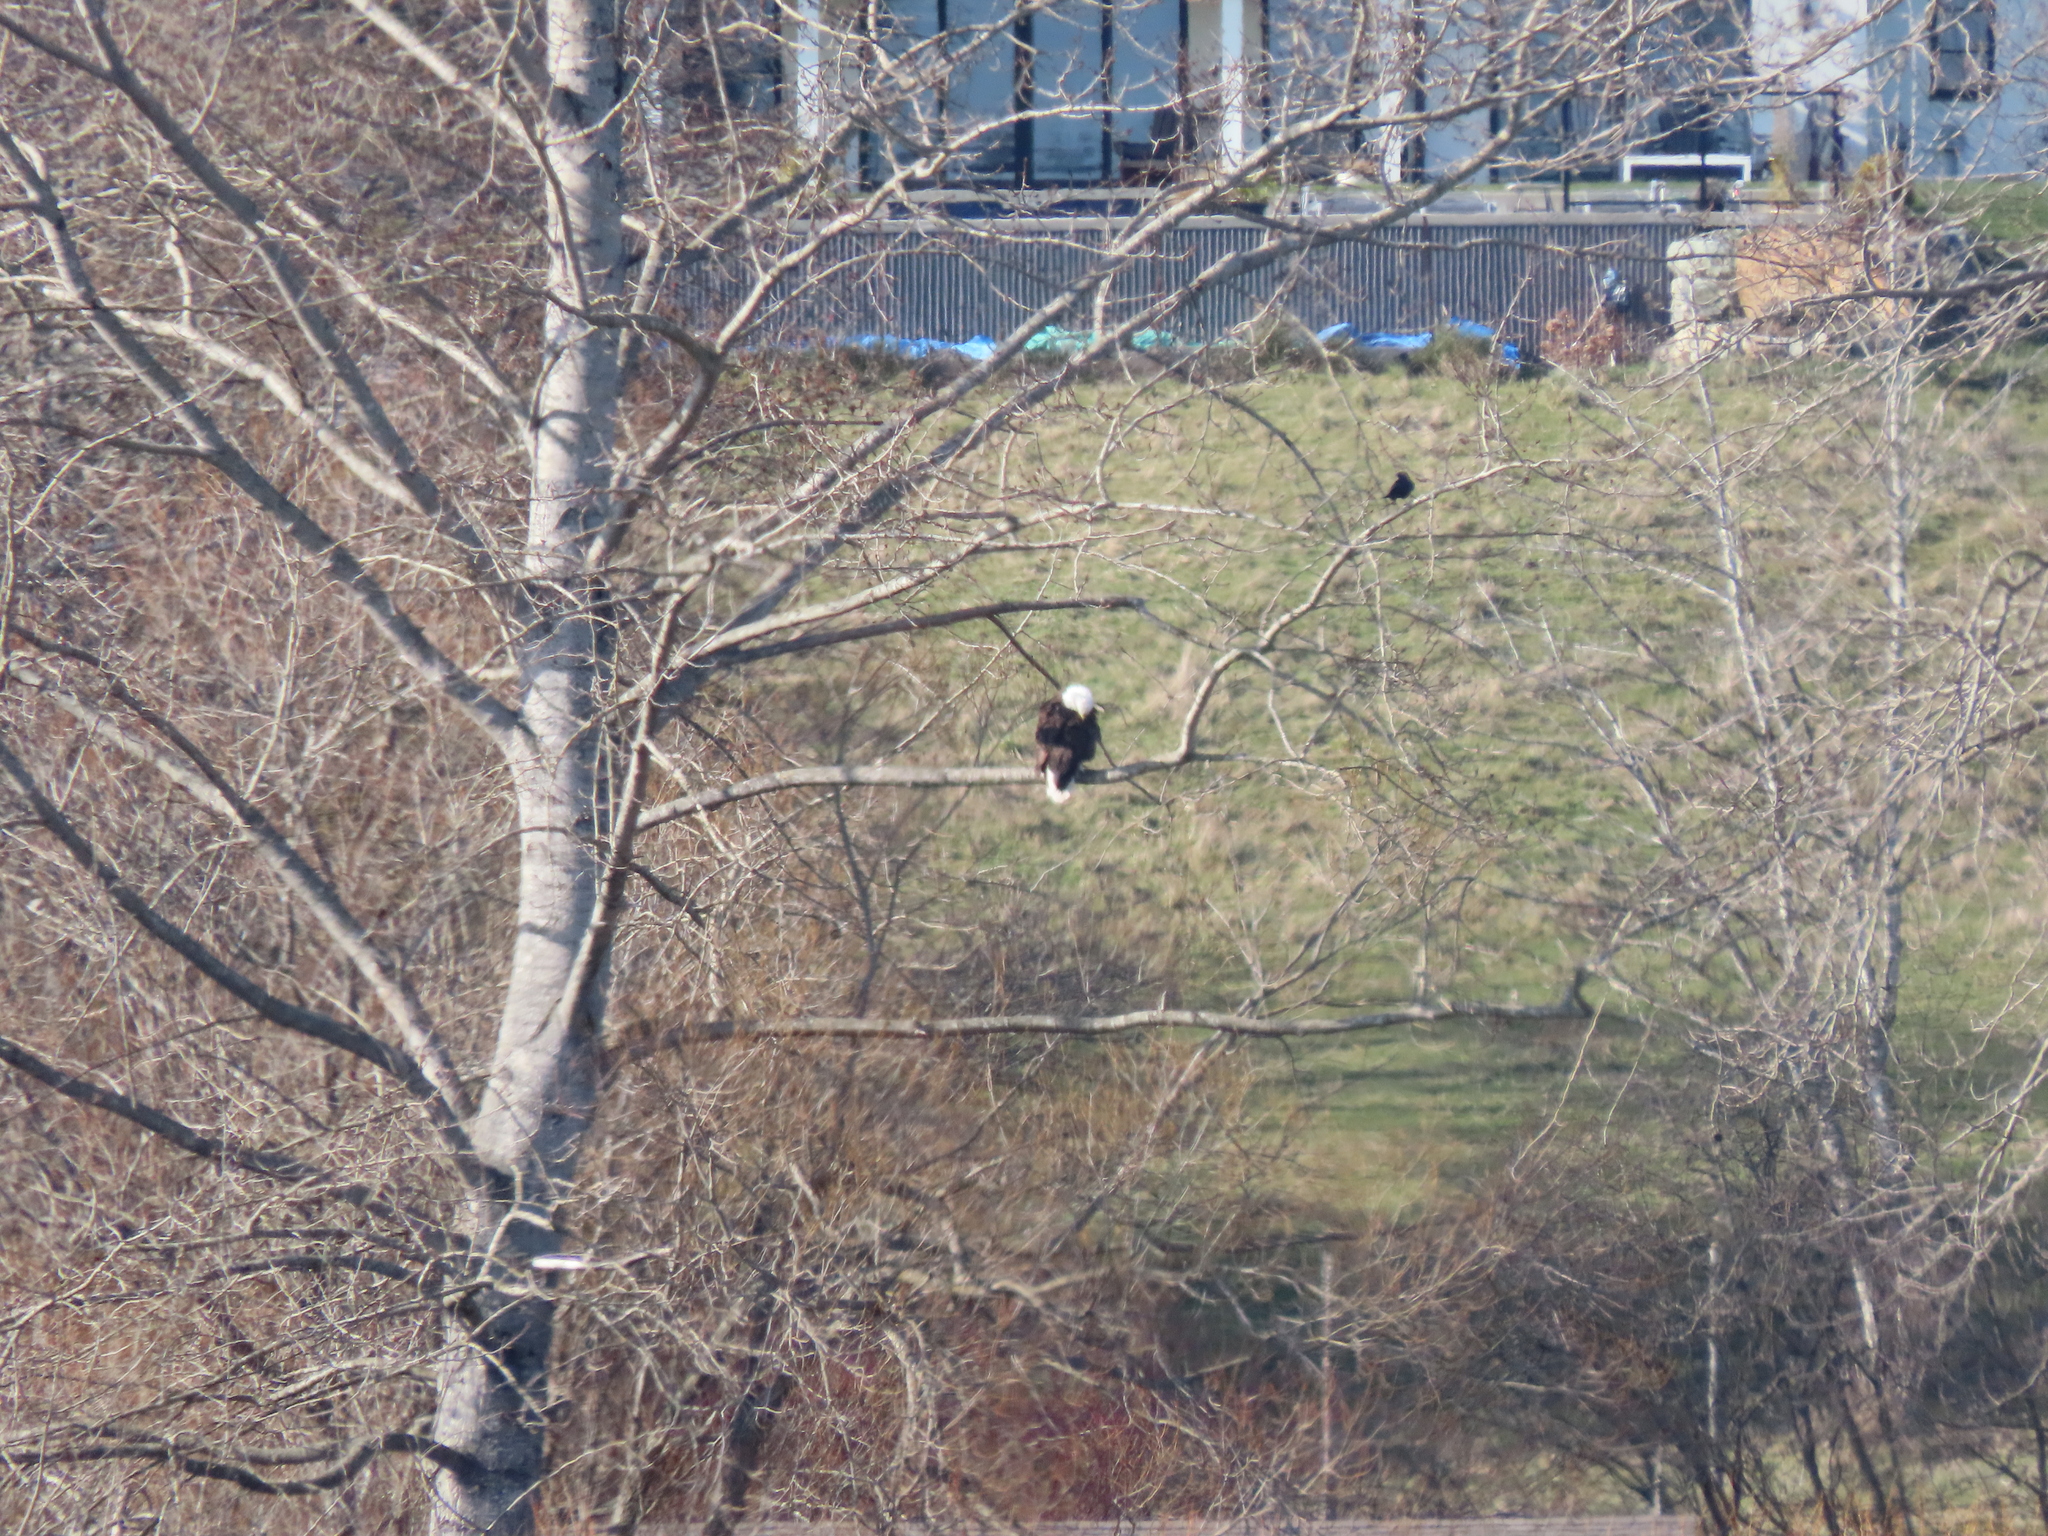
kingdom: Animalia
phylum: Chordata
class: Aves
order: Accipitriformes
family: Accipitridae
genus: Haliaeetus
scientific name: Haliaeetus leucocephalus
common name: Bald eagle
